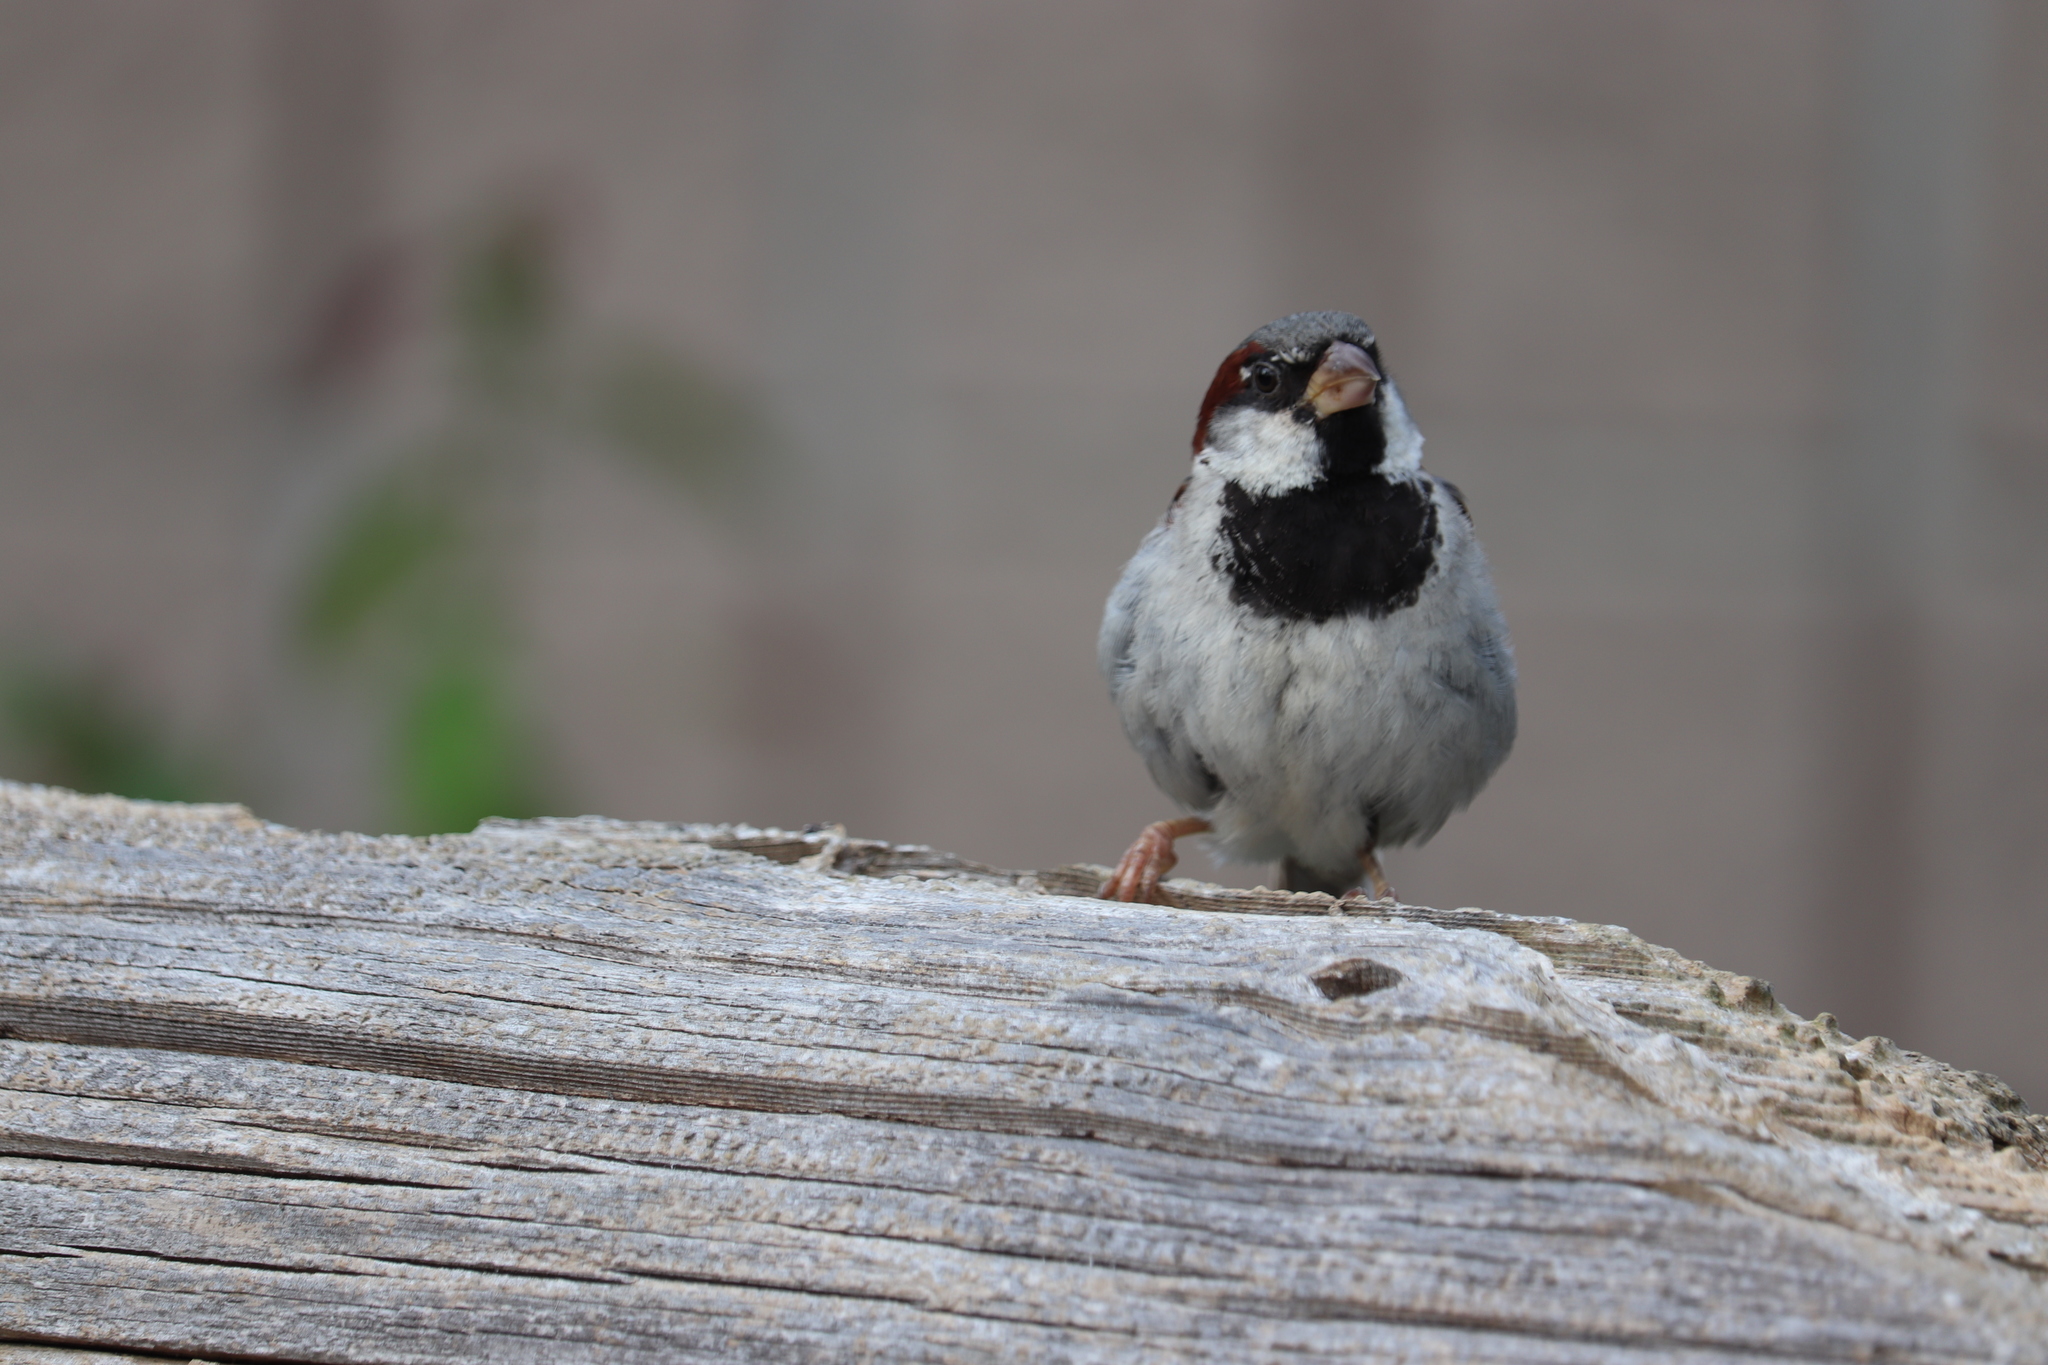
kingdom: Animalia
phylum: Chordata
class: Aves
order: Passeriformes
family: Passeridae
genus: Passer
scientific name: Passer domesticus
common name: House sparrow
